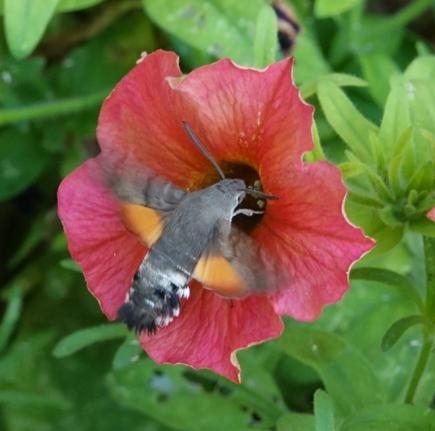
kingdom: Animalia
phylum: Arthropoda
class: Insecta
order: Lepidoptera
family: Sphingidae
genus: Macroglossum
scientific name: Macroglossum stellatarum
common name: Humming-bird hawk-moth
